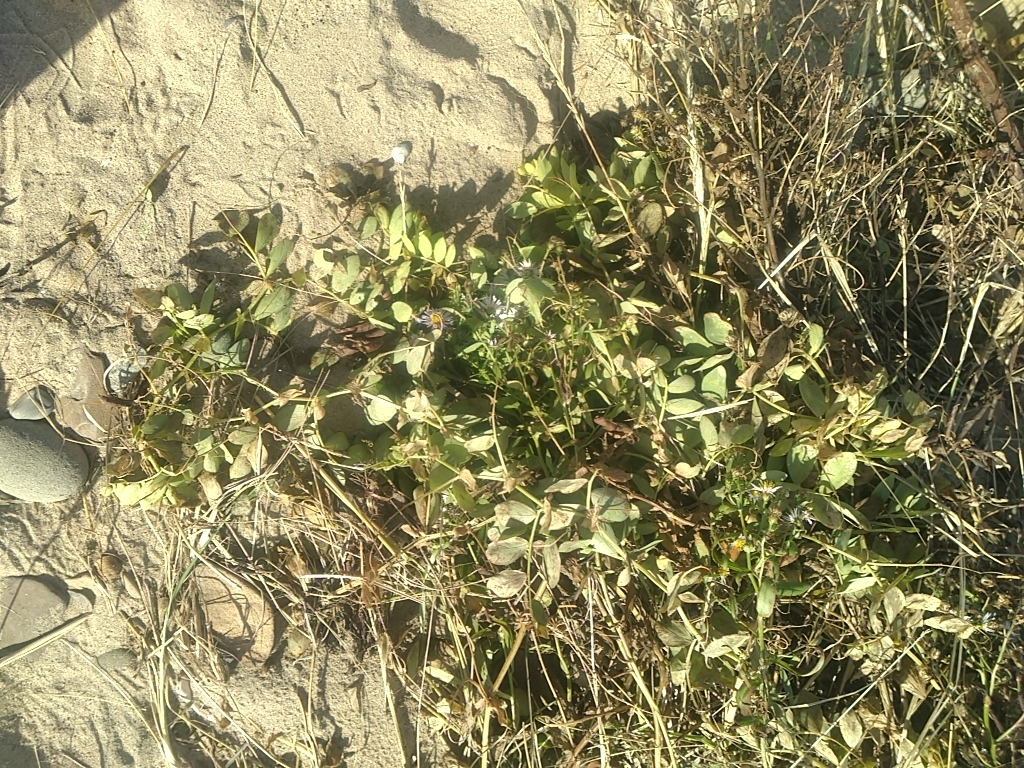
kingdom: Plantae
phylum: Tracheophyta
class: Magnoliopsida
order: Fabales
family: Fabaceae
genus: Lathyrus
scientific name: Lathyrus japonicus
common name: Sea pea
